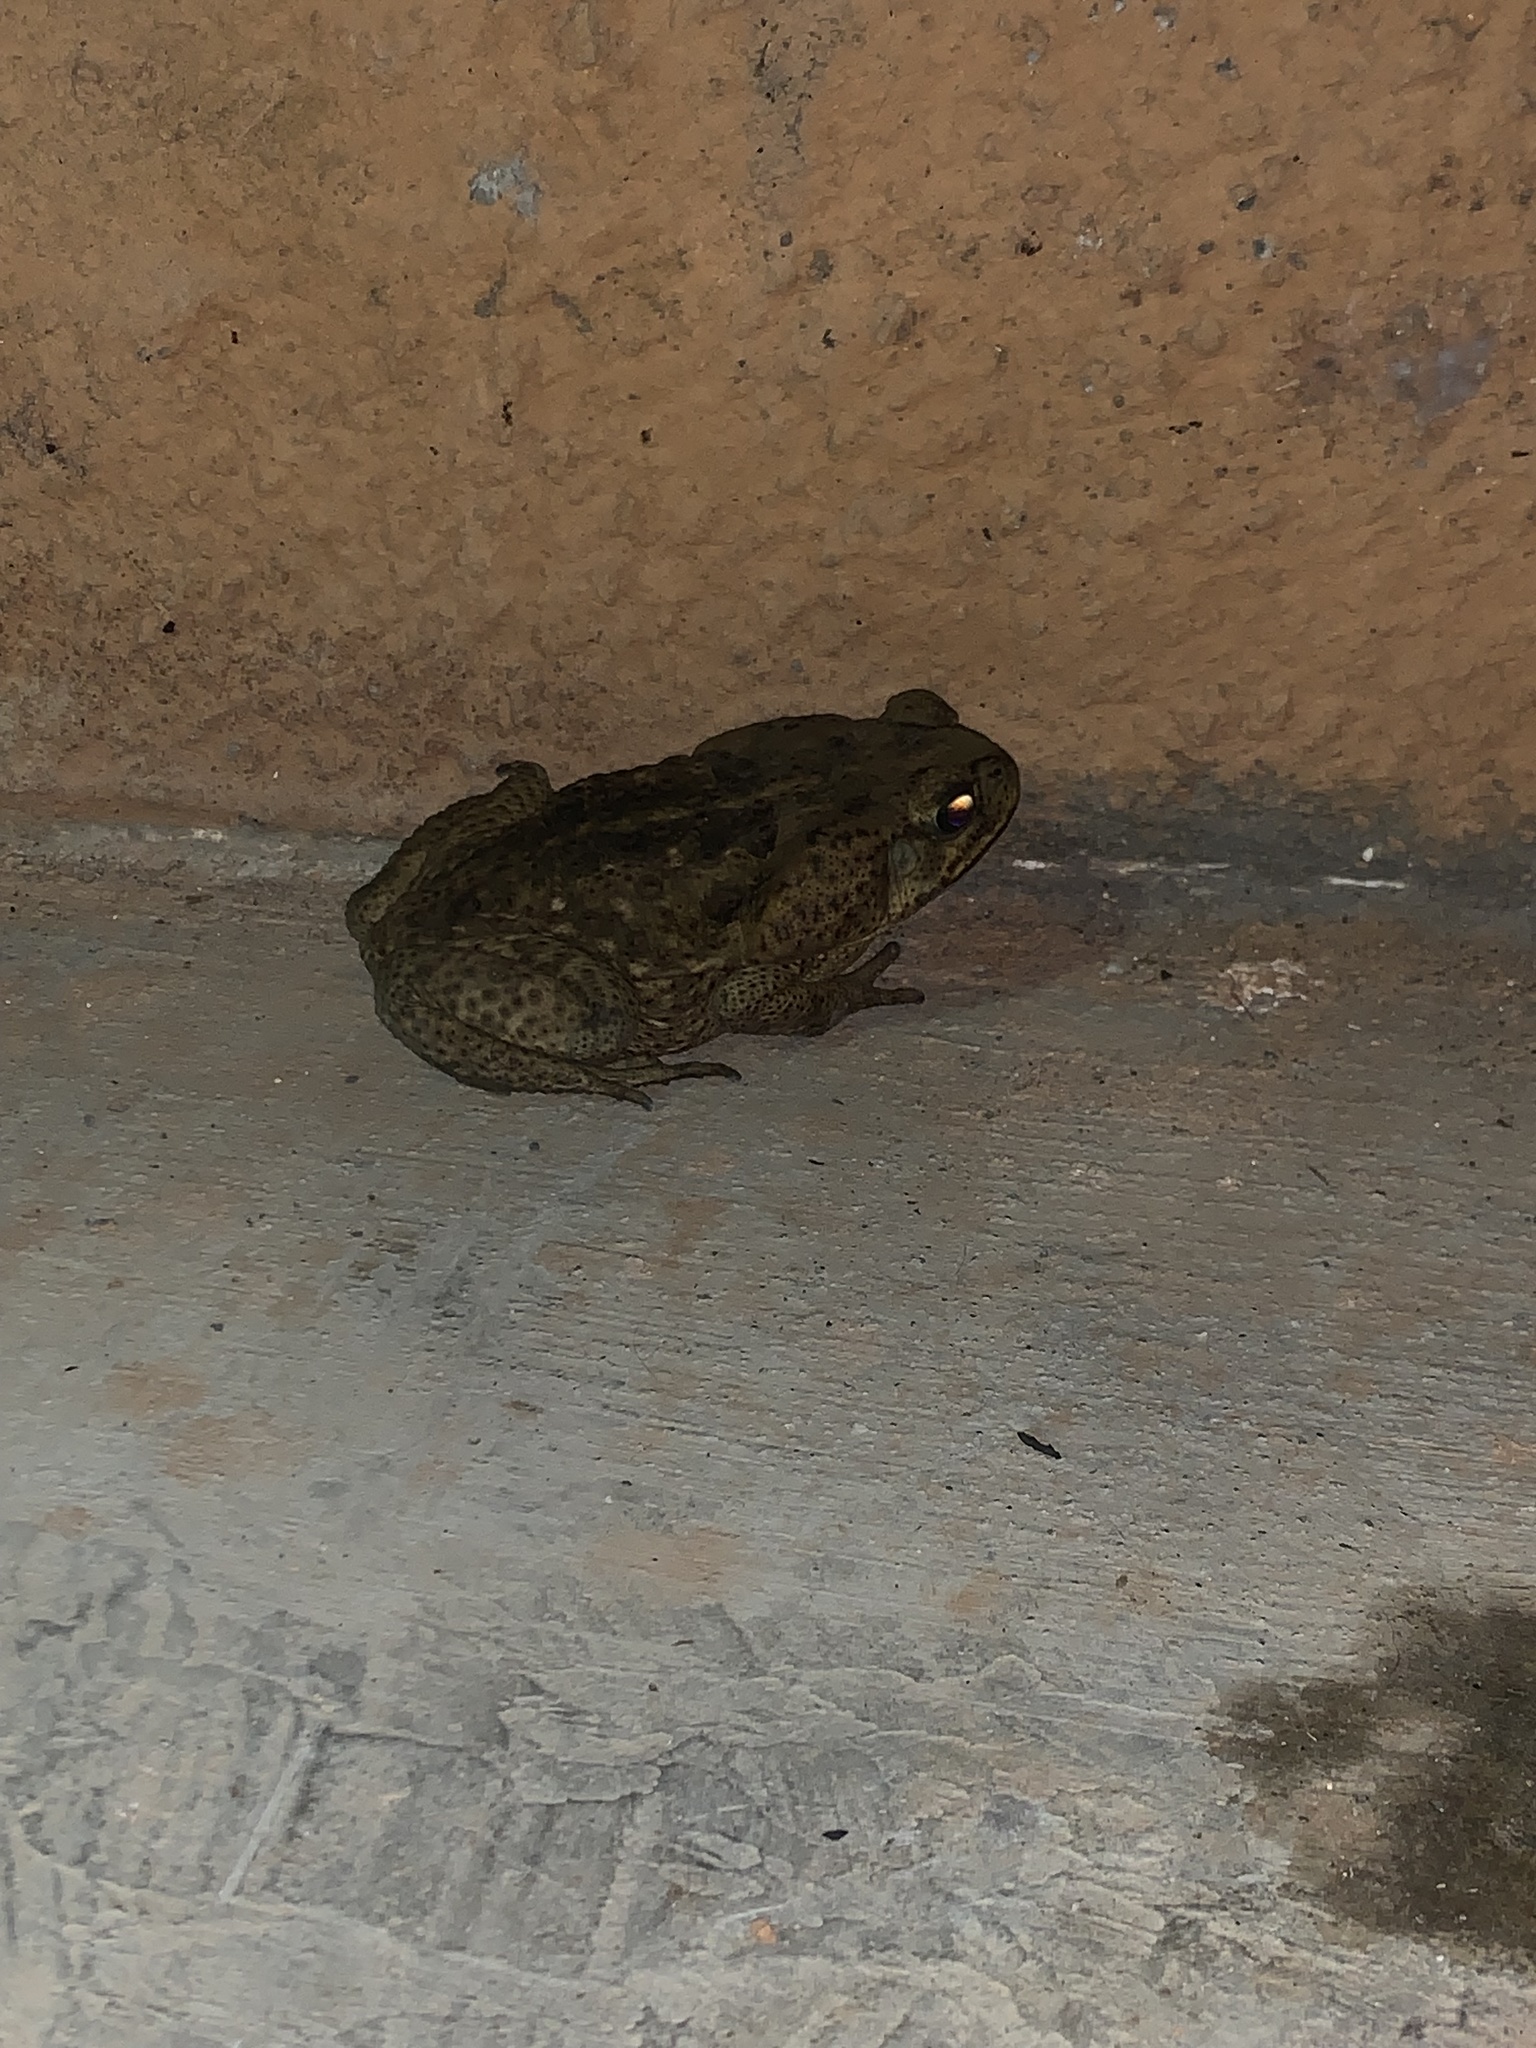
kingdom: Animalia
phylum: Chordata
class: Amphibia
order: Anura
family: Bufonidae
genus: Rhinella
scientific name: Rhinella horribilis
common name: Mesoamerican cane toad
